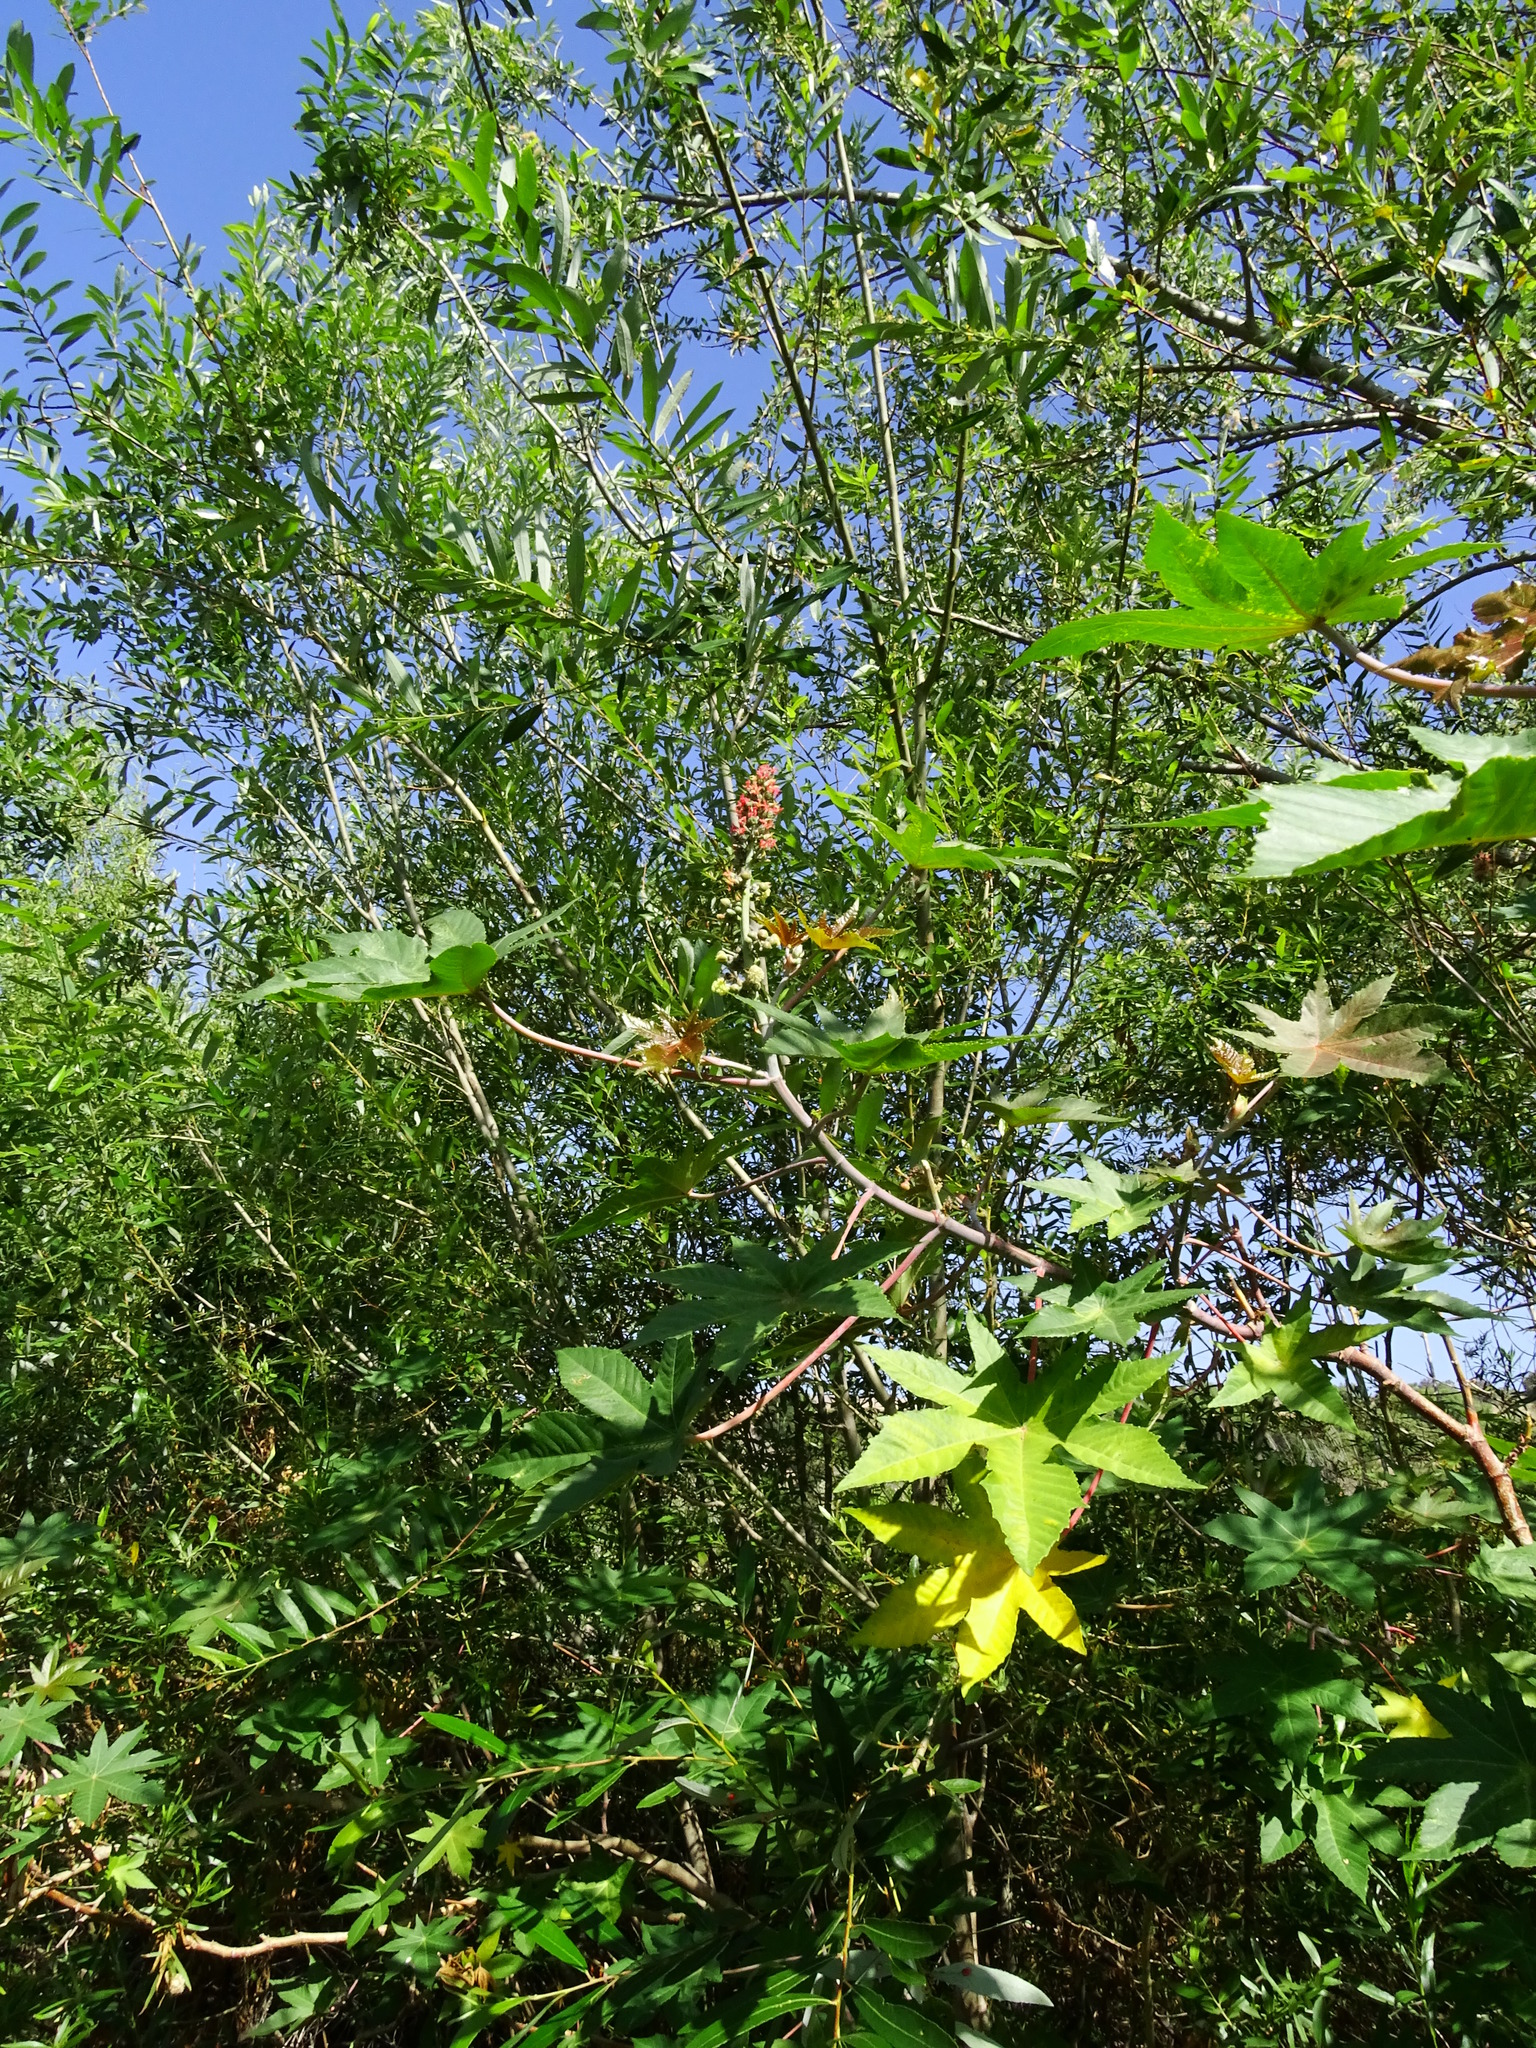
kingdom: Plantae
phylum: Tracheophyta
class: Magnoliopsida
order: Malpighiales
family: Euphorbiaceae
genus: Ricinus
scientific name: Ricinus communis
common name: Castor-oil-plant
